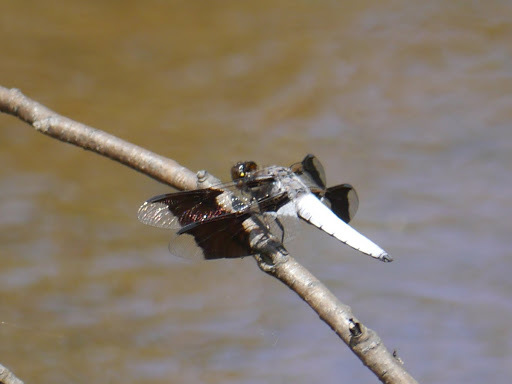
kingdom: Animalia
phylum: Arthropoda
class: Insecta
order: Odonata
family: Libellulidae
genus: Plathemis
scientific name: Plathemis lydia
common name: Common whitetail
